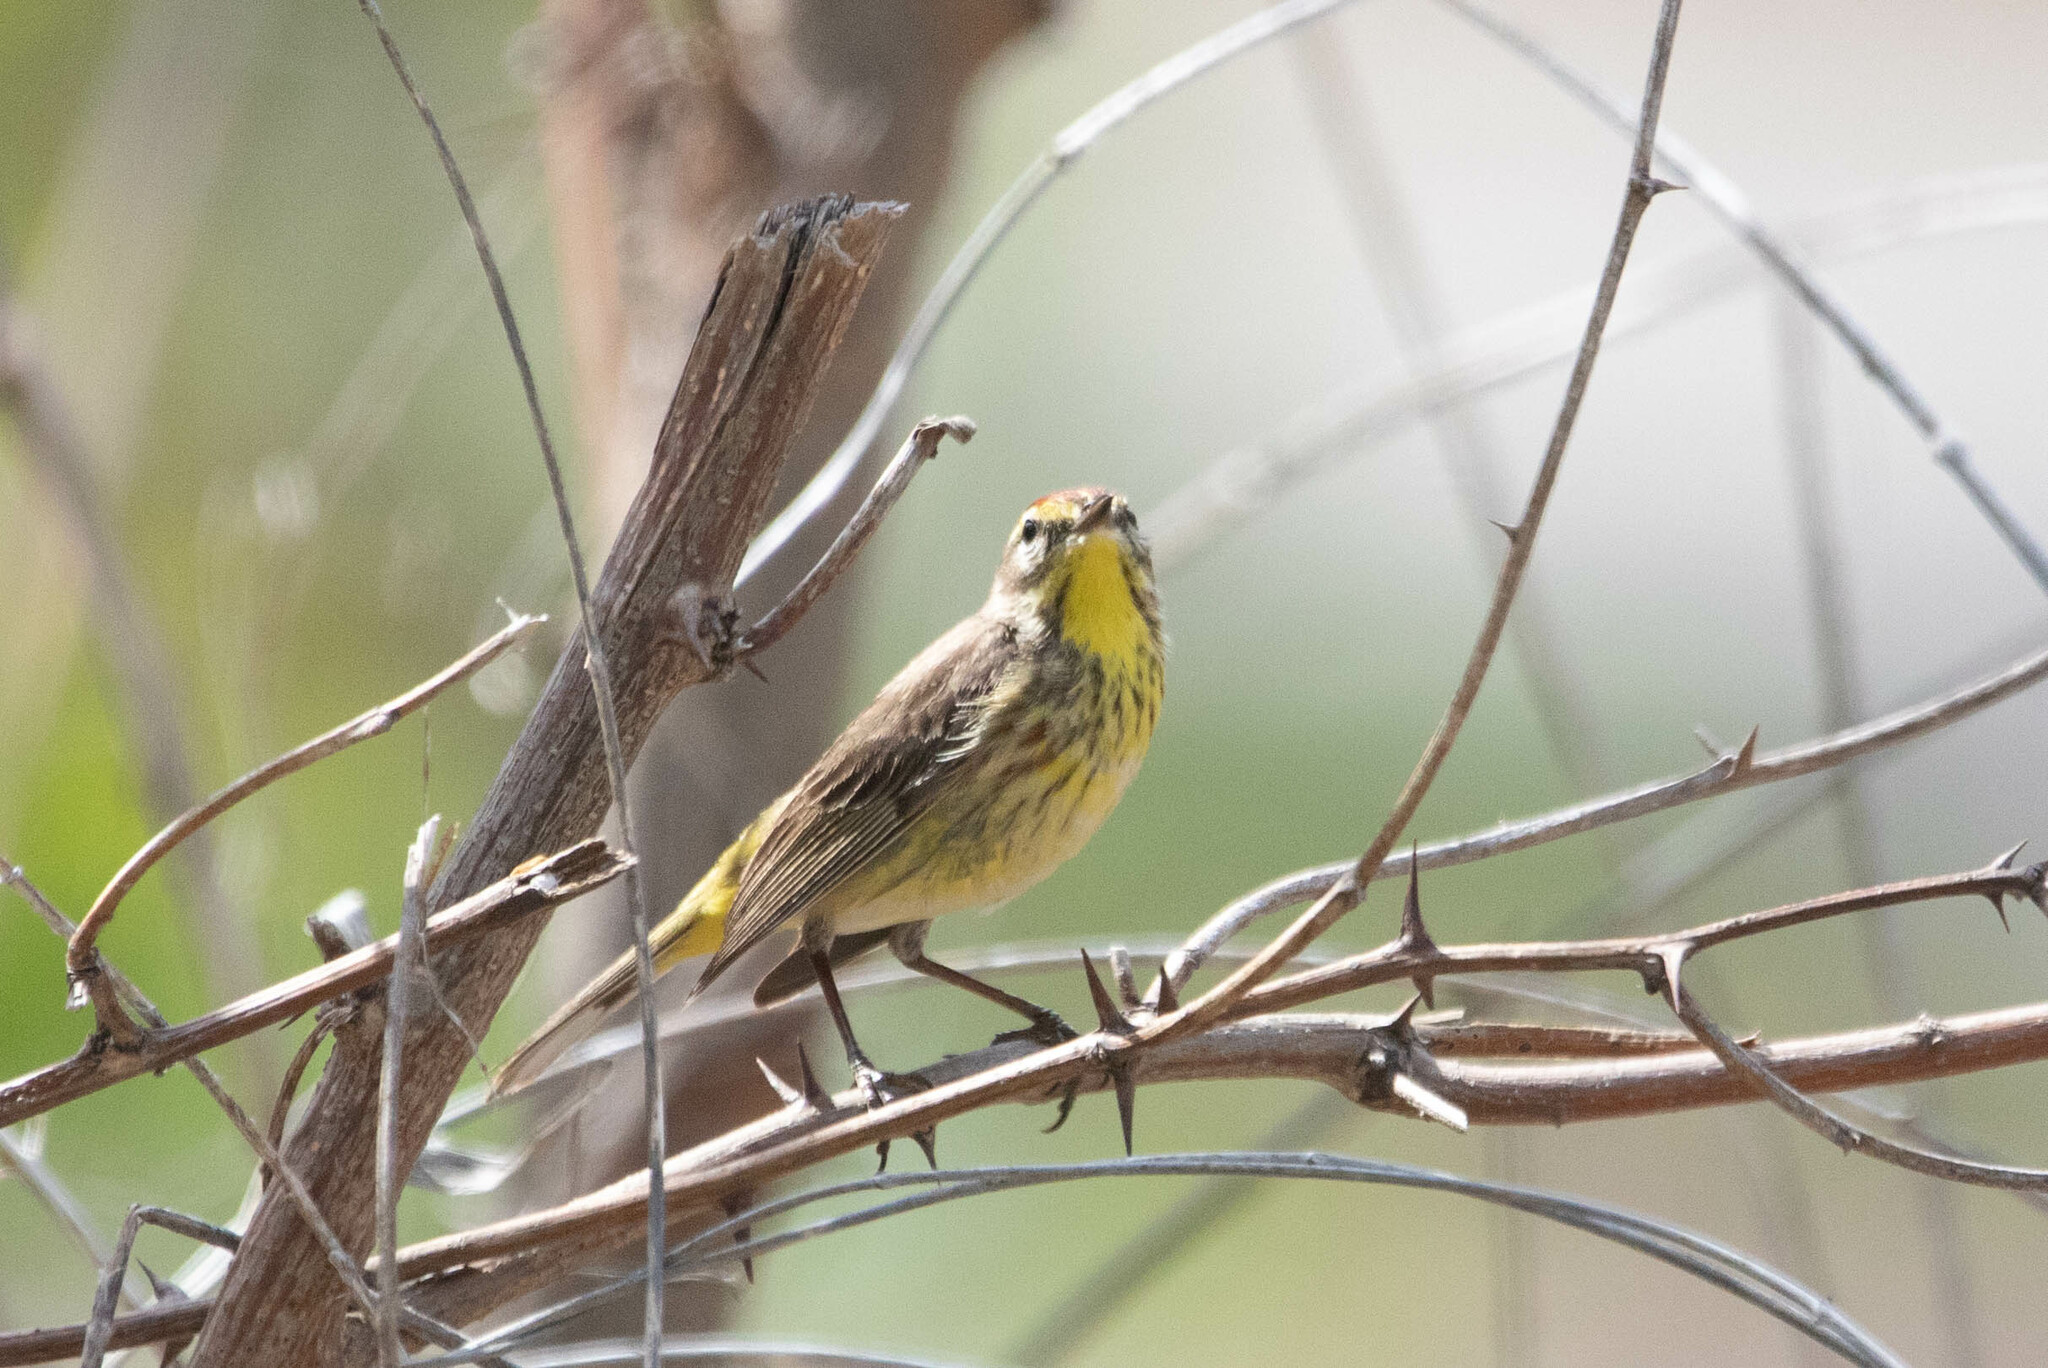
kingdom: Animalia
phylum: Chordata
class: Aves
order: Passeriformes
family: Parulidae
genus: Setophaga
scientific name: Setophaga palmarum
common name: Palm warbler
